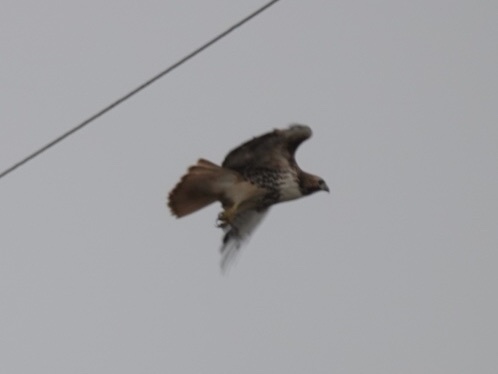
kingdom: Animalia
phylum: Chordata
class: Aves
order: Accipitriformes
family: Accipitridae
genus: Buteo
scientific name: Buteo jamaicensis
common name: Red-tailed hawk
